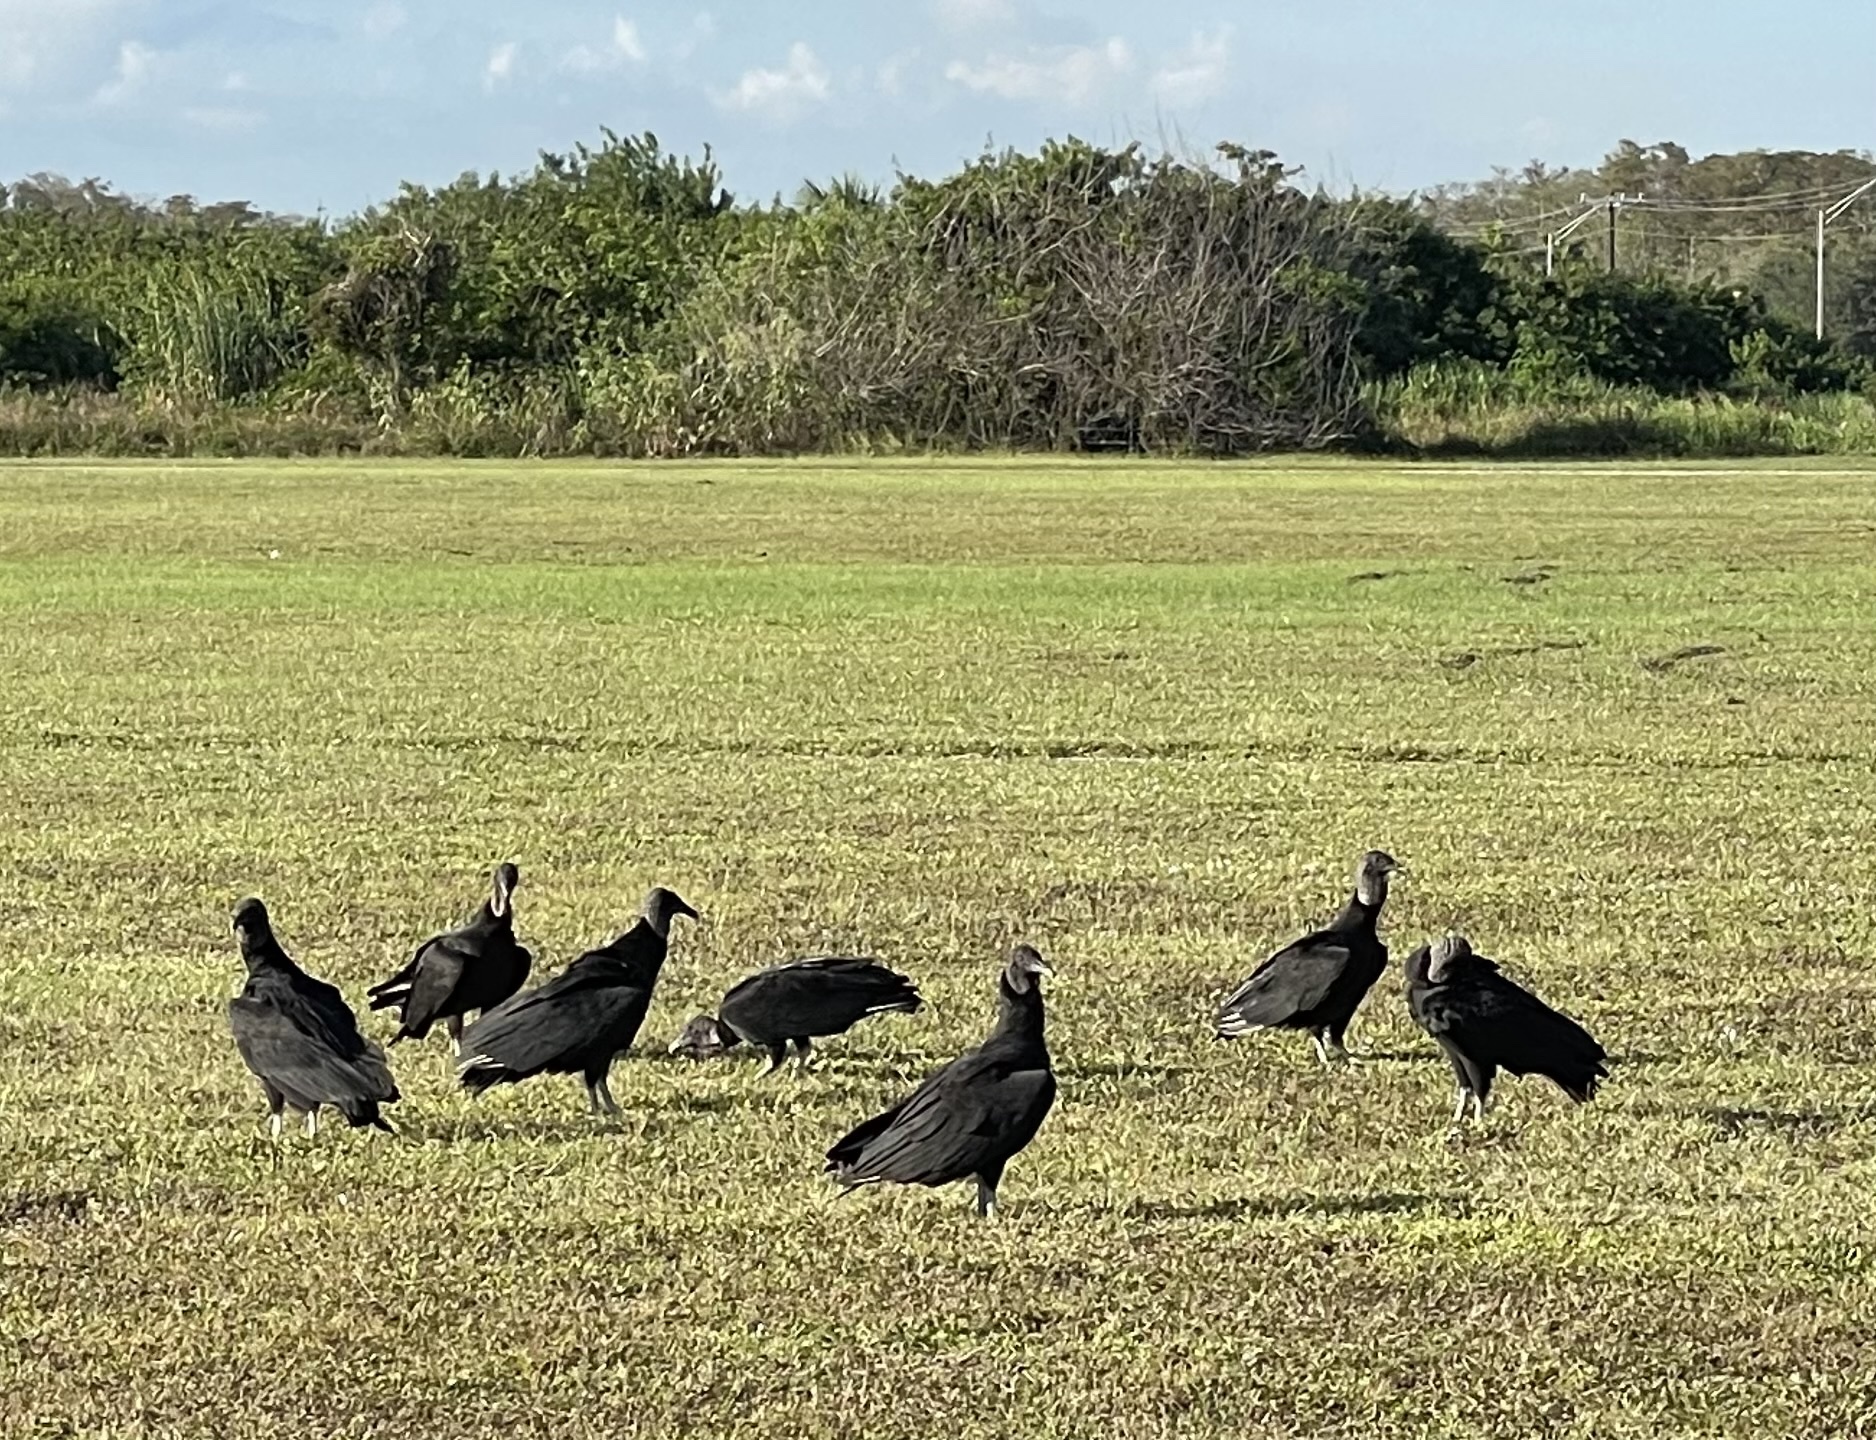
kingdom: Animalia
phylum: Chordata
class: Aves
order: Accipitriformes
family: Cathartidae
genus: Coragyps
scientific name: Coragyps atratus
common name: Black vulture
